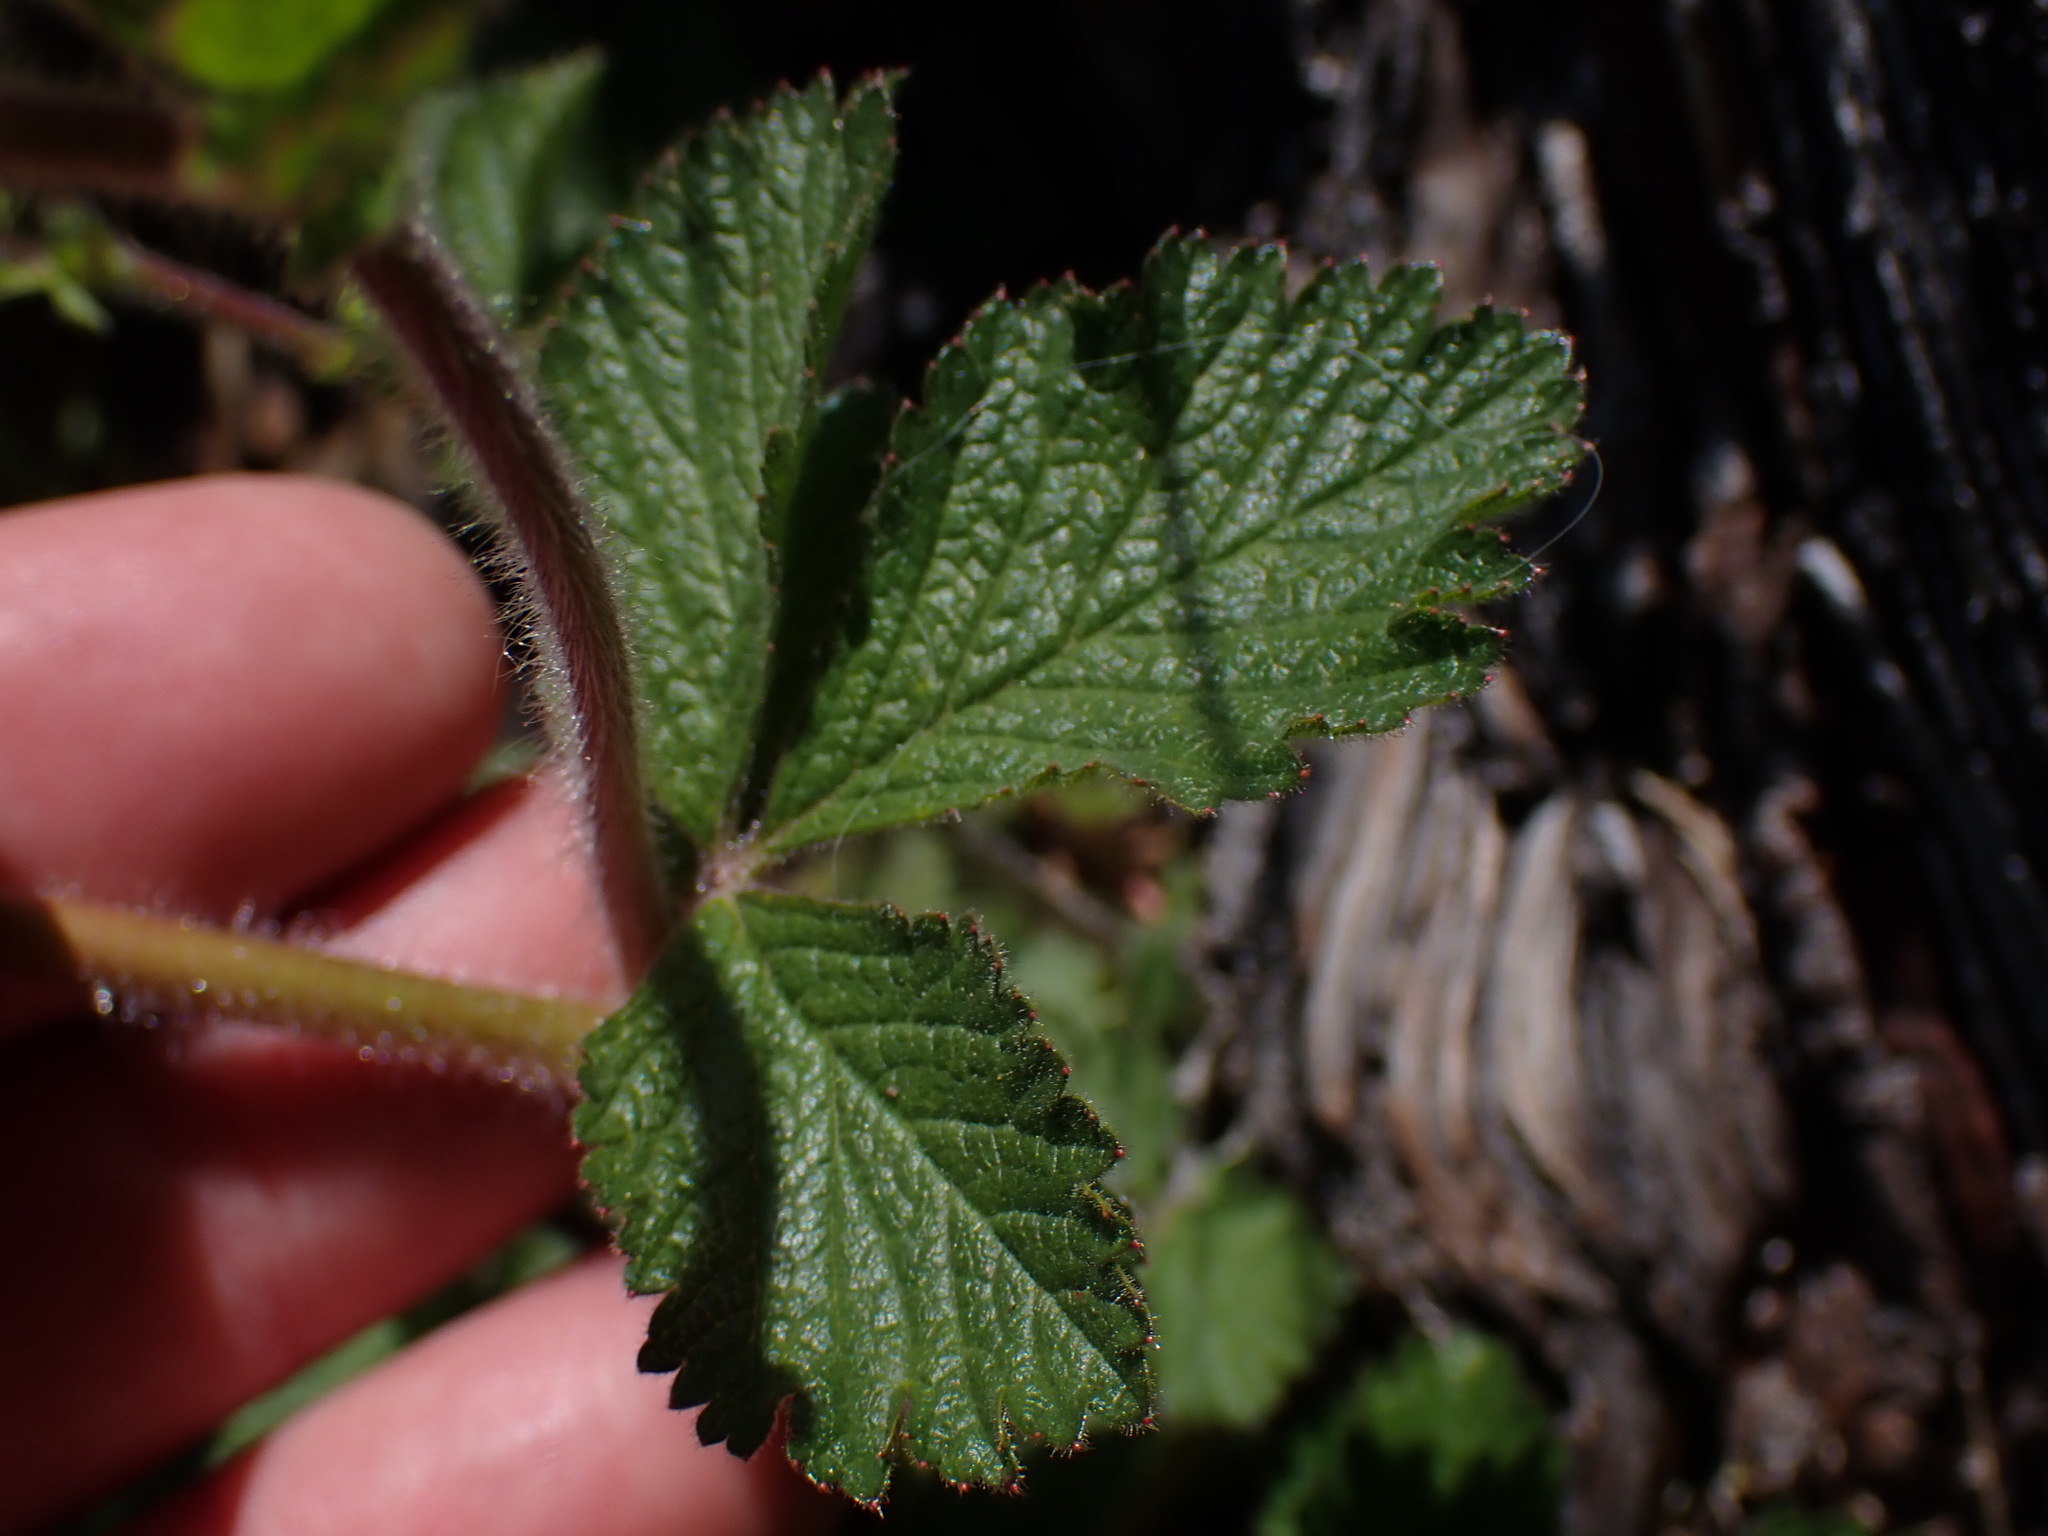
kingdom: Plantae
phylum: Tracheophyta
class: Magnoliopsida
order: Rosales
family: Rosaceae
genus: Drymocallis
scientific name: Drymocallis glandulosa
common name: Sticky cinquefoil
